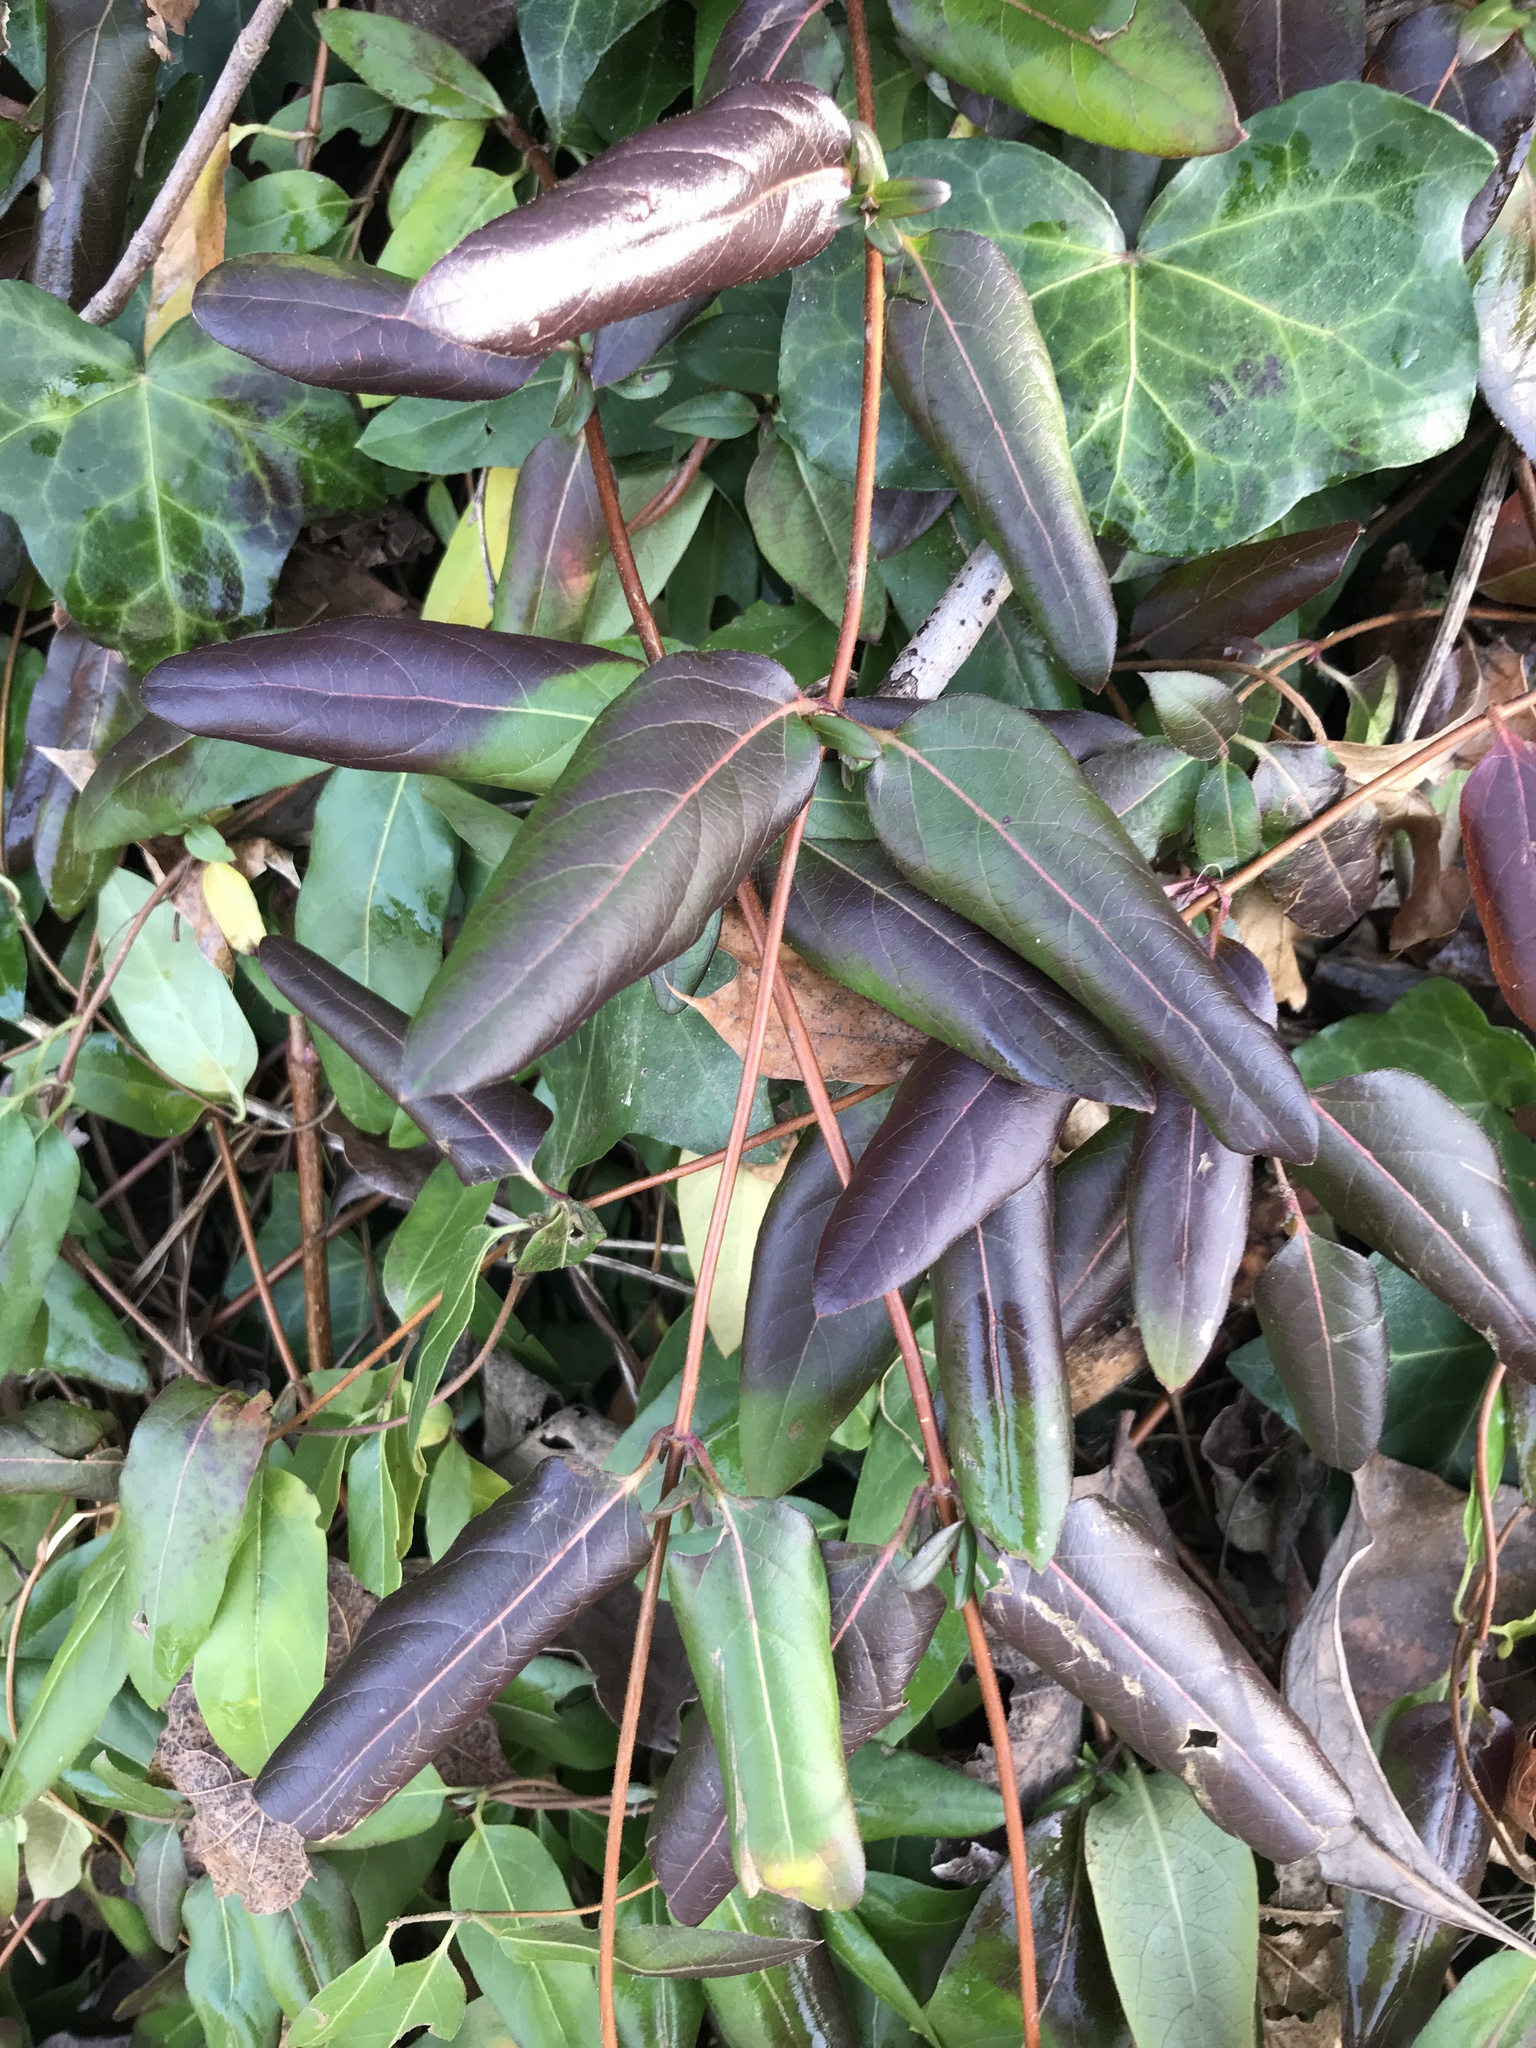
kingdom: Plantae
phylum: Tracheophyta
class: Magnoliopsida
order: Dipsacales
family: Caprifoliaceae
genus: Lonicera
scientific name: Lonicera japonica
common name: Japanese honeysuckle
